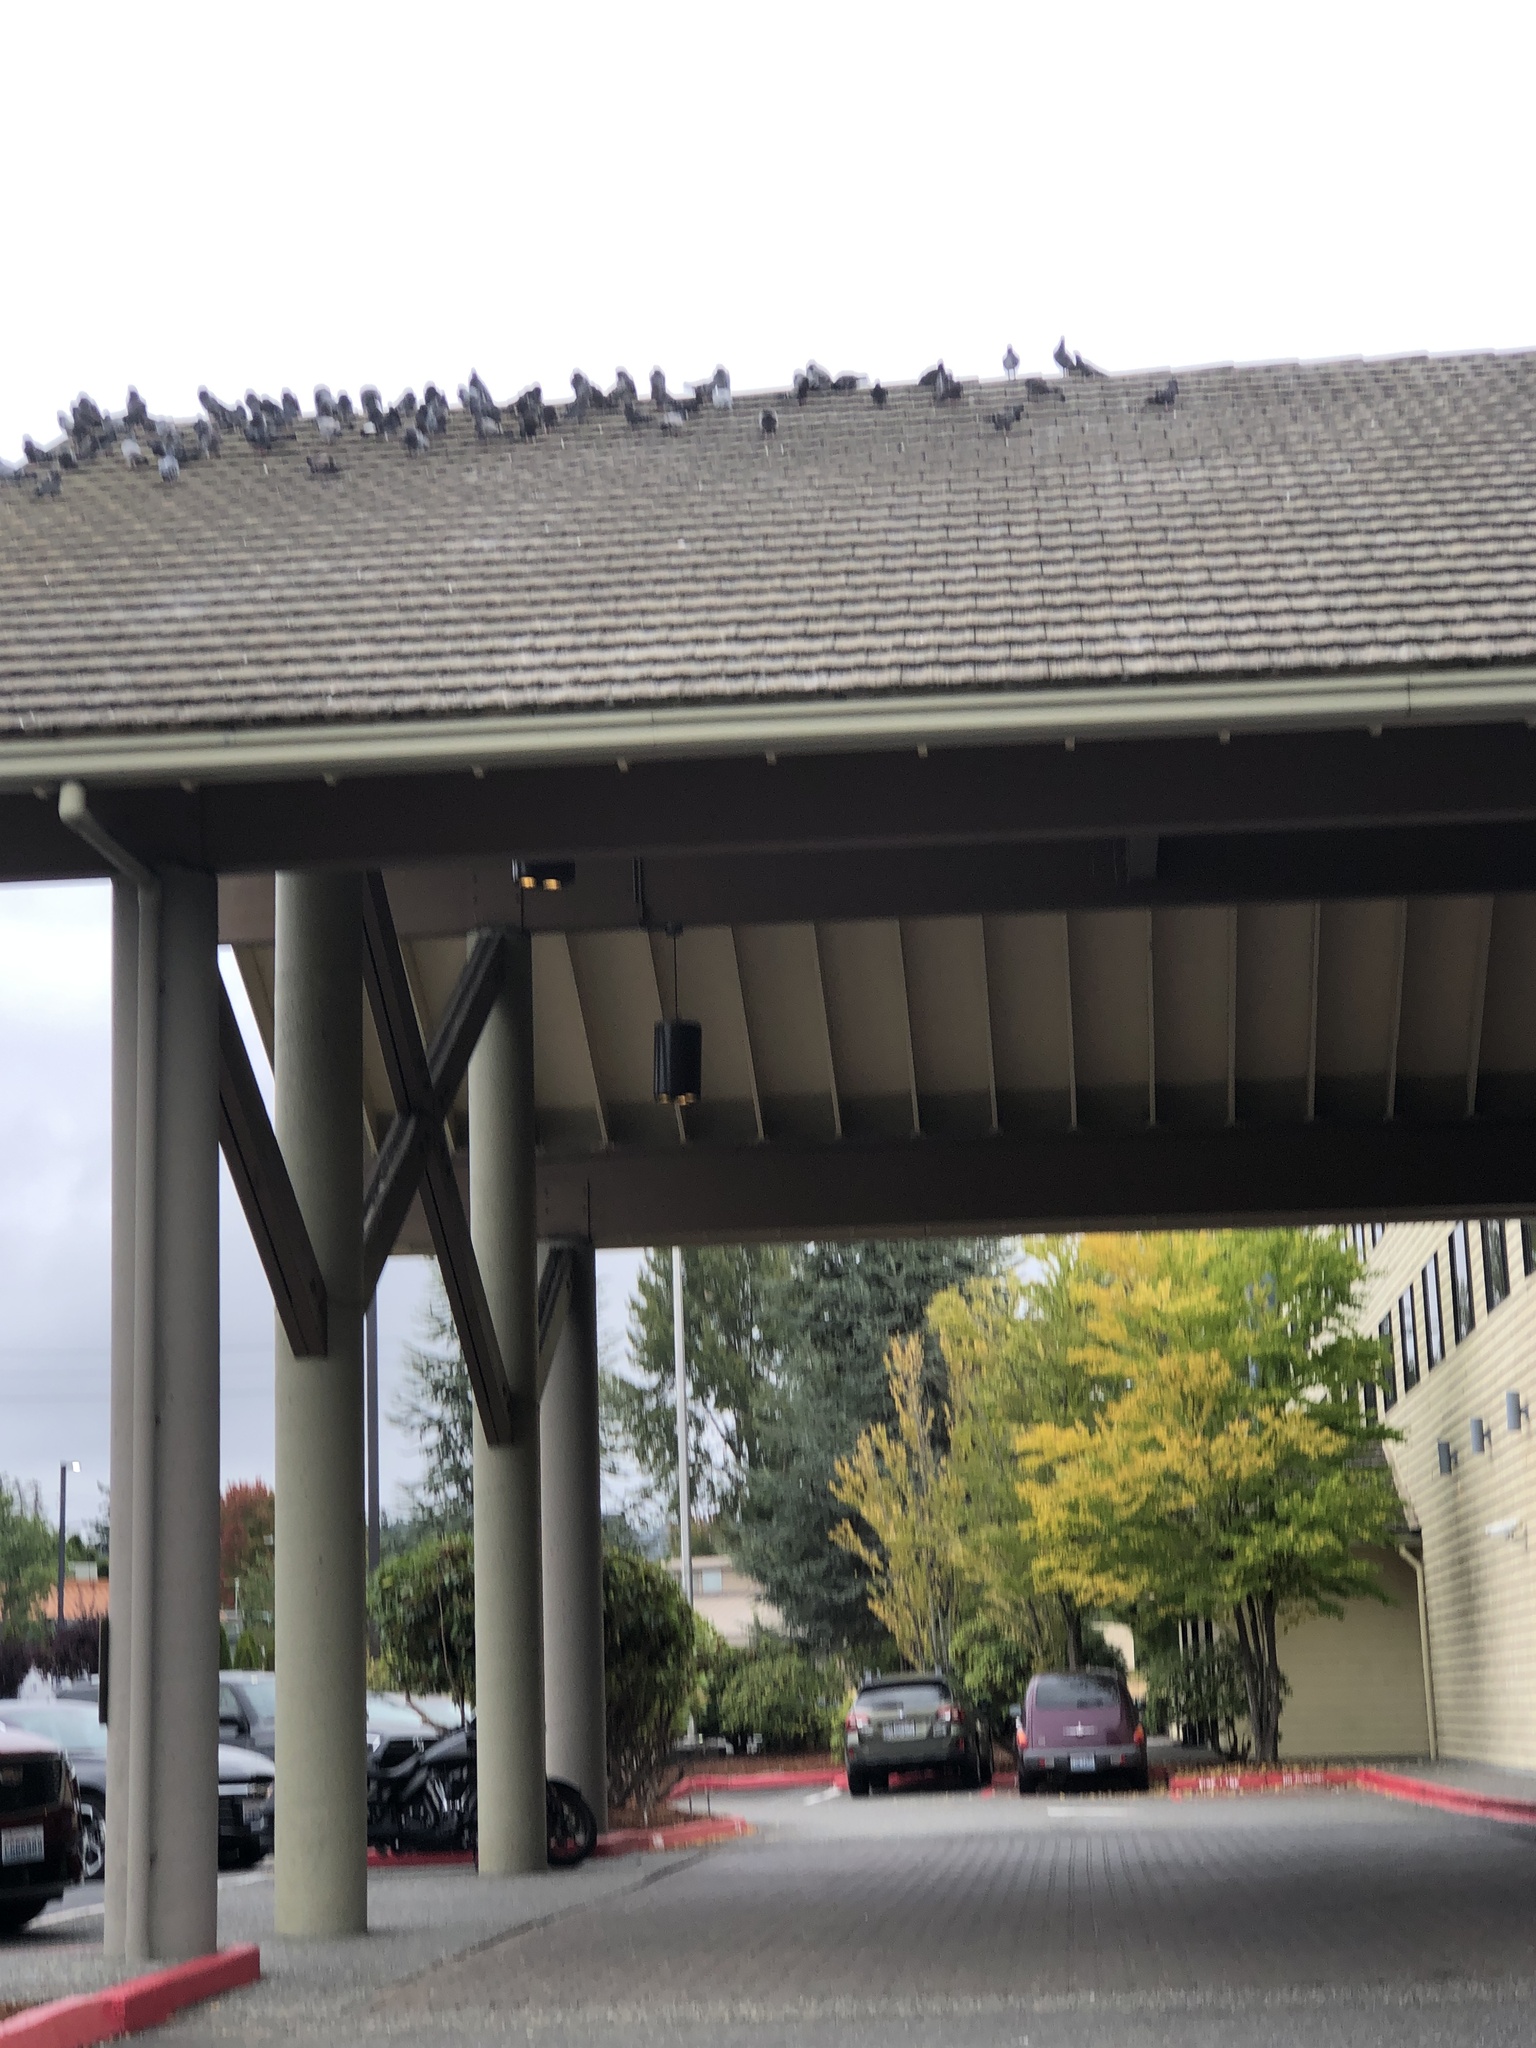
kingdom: Animalia
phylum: Chordata
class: Aves
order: Columbiformes
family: Columbidae
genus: Columba
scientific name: Columba livia
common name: Rock pigeon
